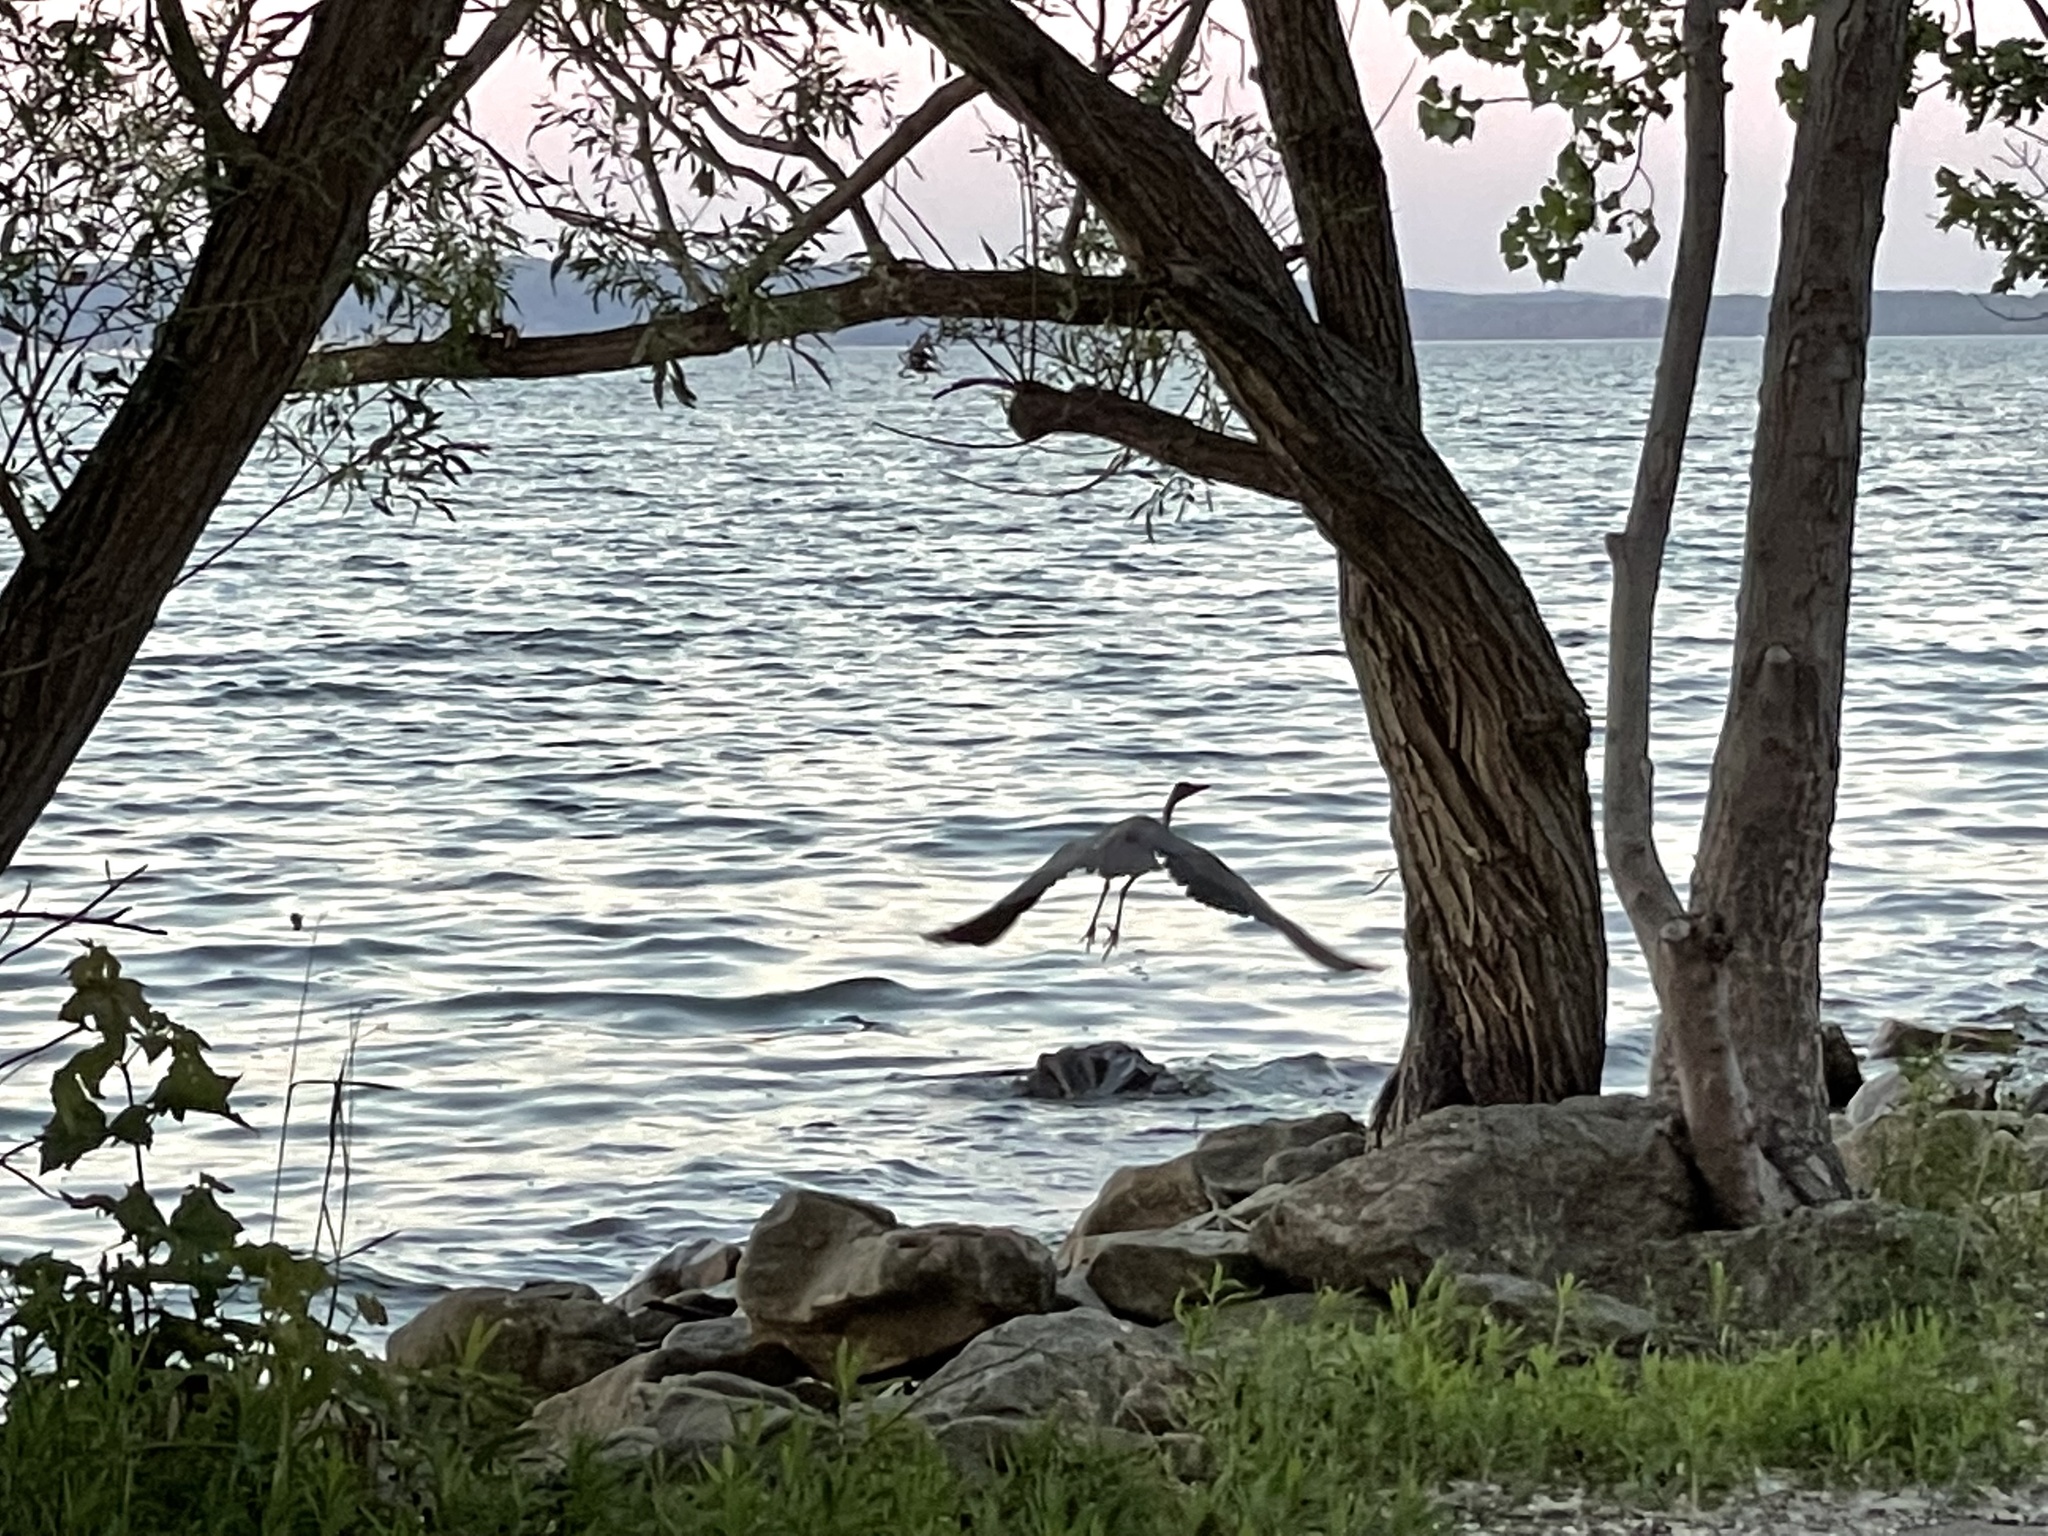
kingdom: Animalia
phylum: Chordata
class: Aves
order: Pelecaniformes
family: Ardeidae
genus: Ardea
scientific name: Ardea herodias
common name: Great blue heron
